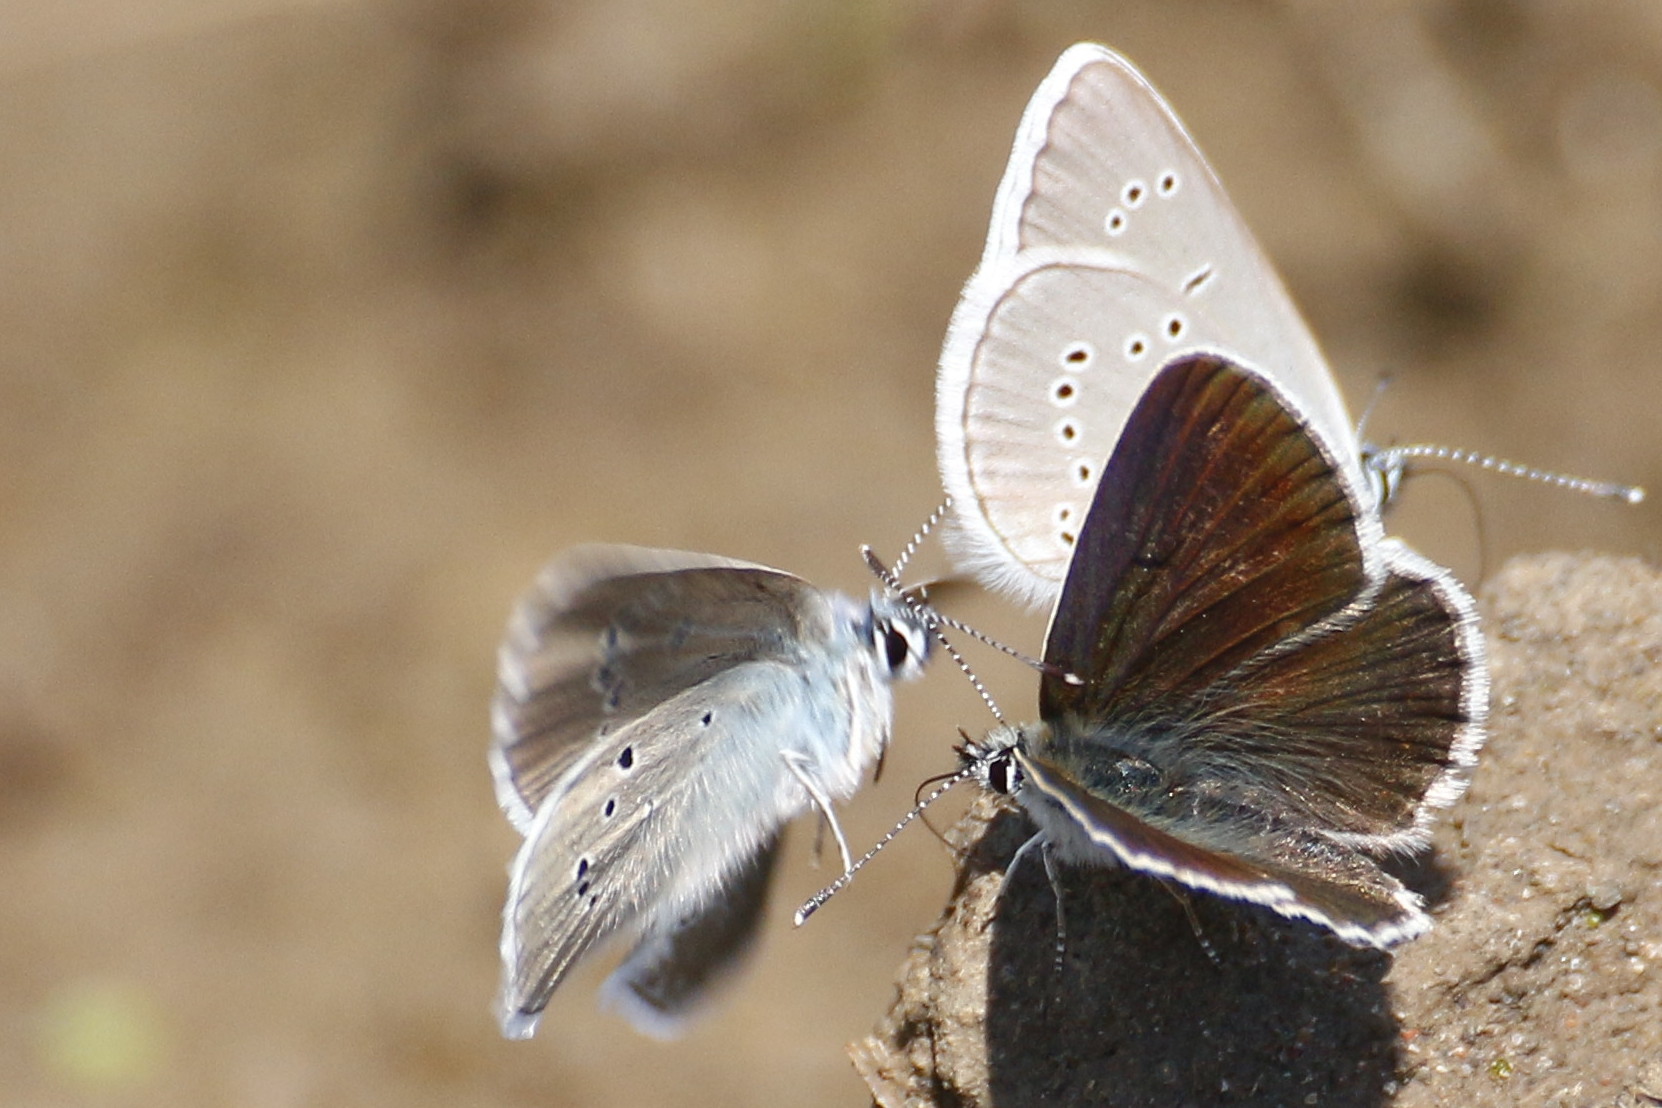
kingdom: Animalia
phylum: Arthropoda
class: Insecta
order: Lepidoptera
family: Lycaenidae
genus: Cyaniris
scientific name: Cyaniris semiargus
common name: Mazarine blue
